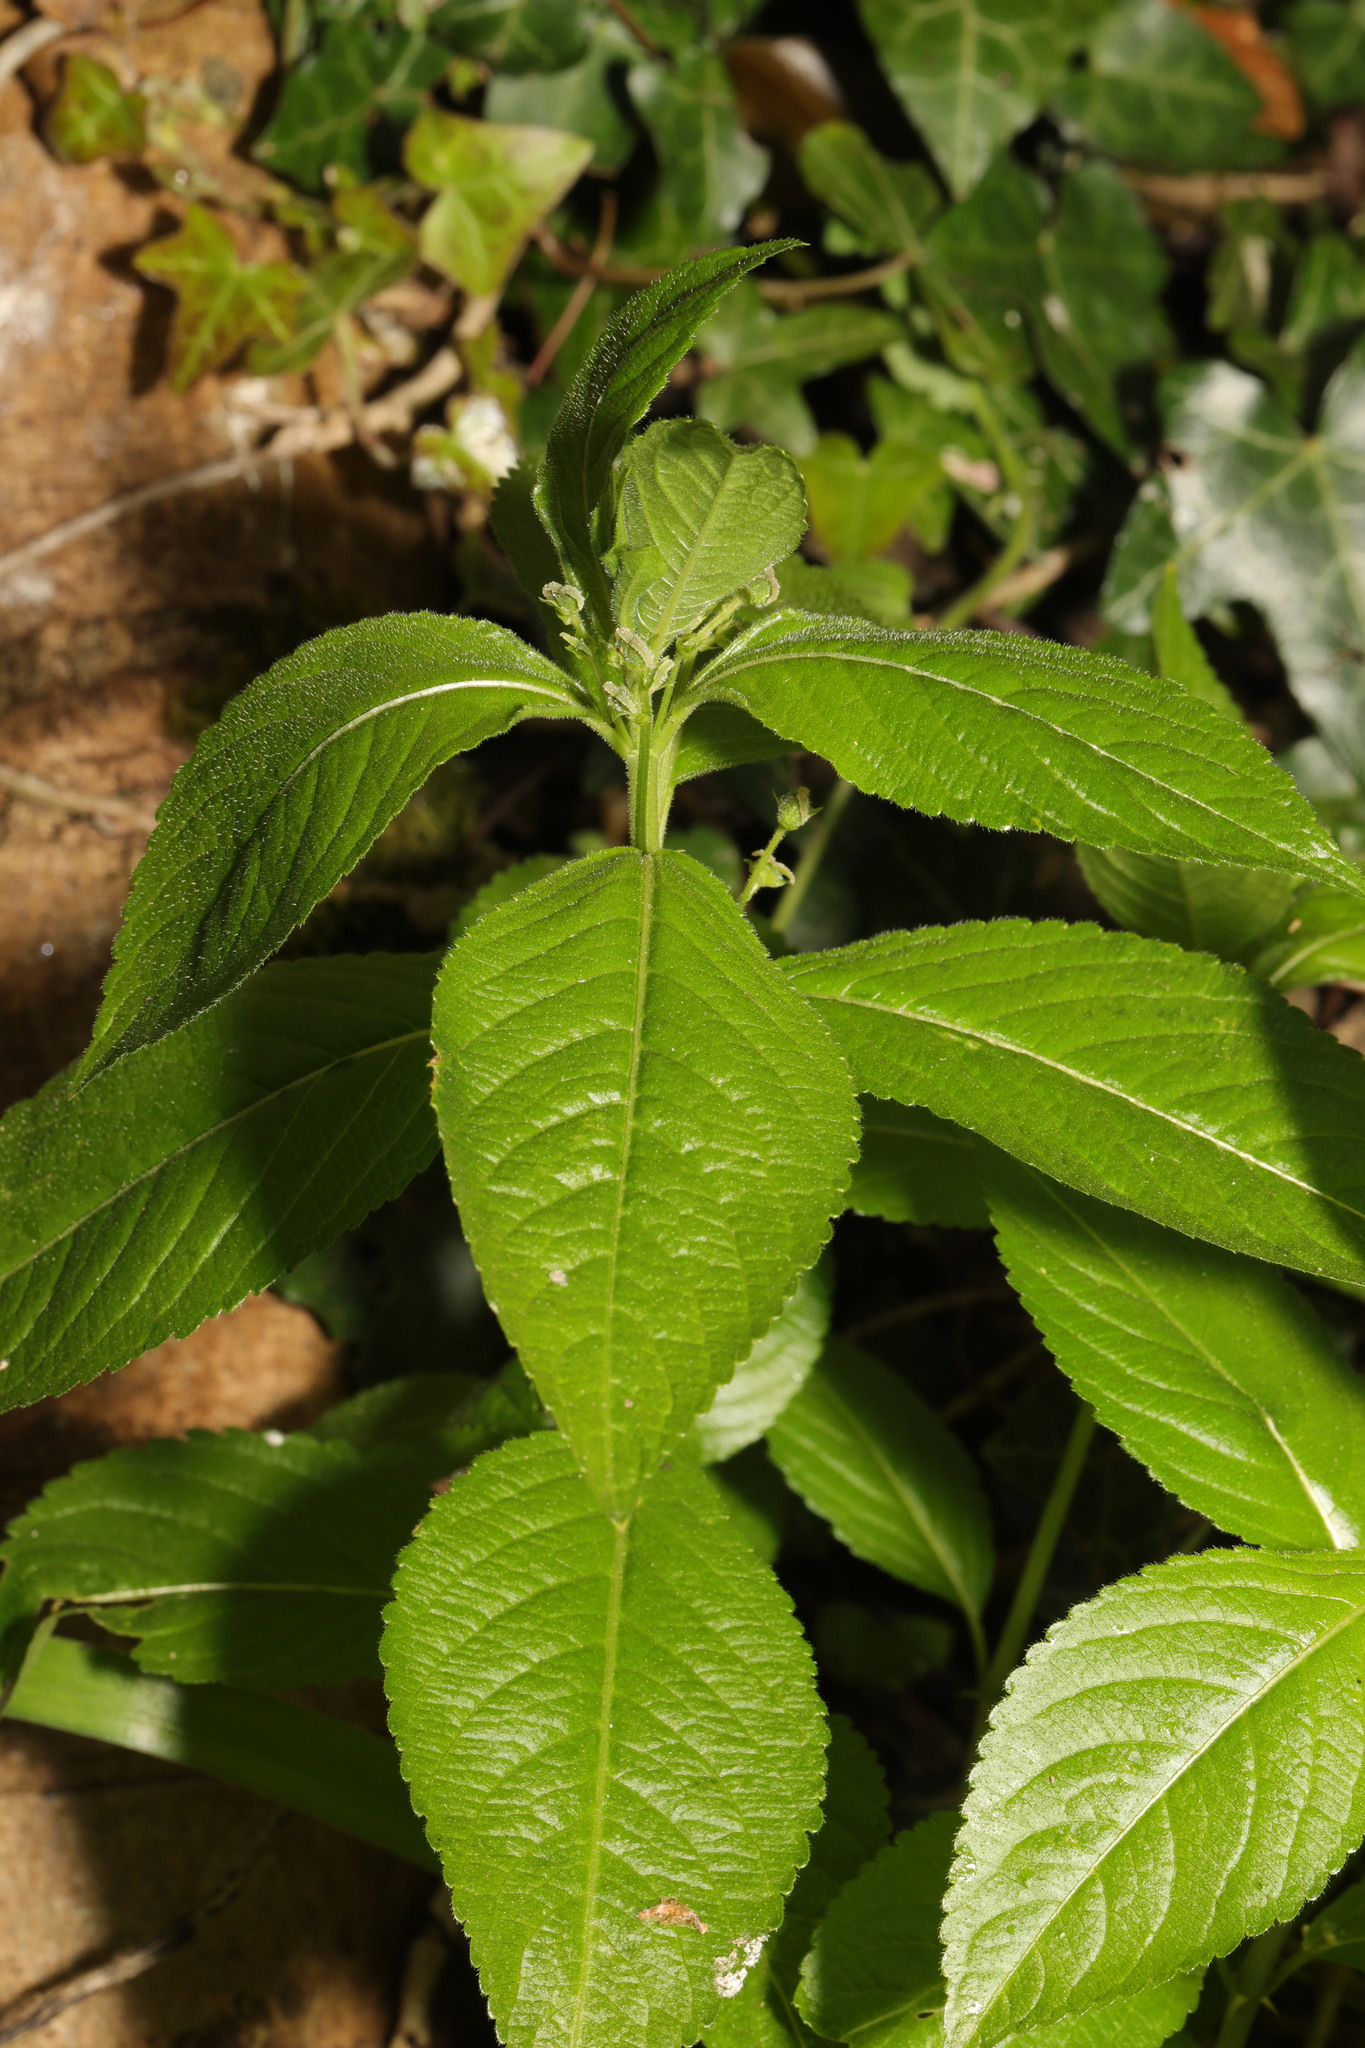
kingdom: Plantae
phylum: Tracheophyta
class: Magnoliopsida
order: Malpighiales
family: Euphorbiaceae
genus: Mercurialis
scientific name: Mercurialis perennis
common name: Dog mercury
